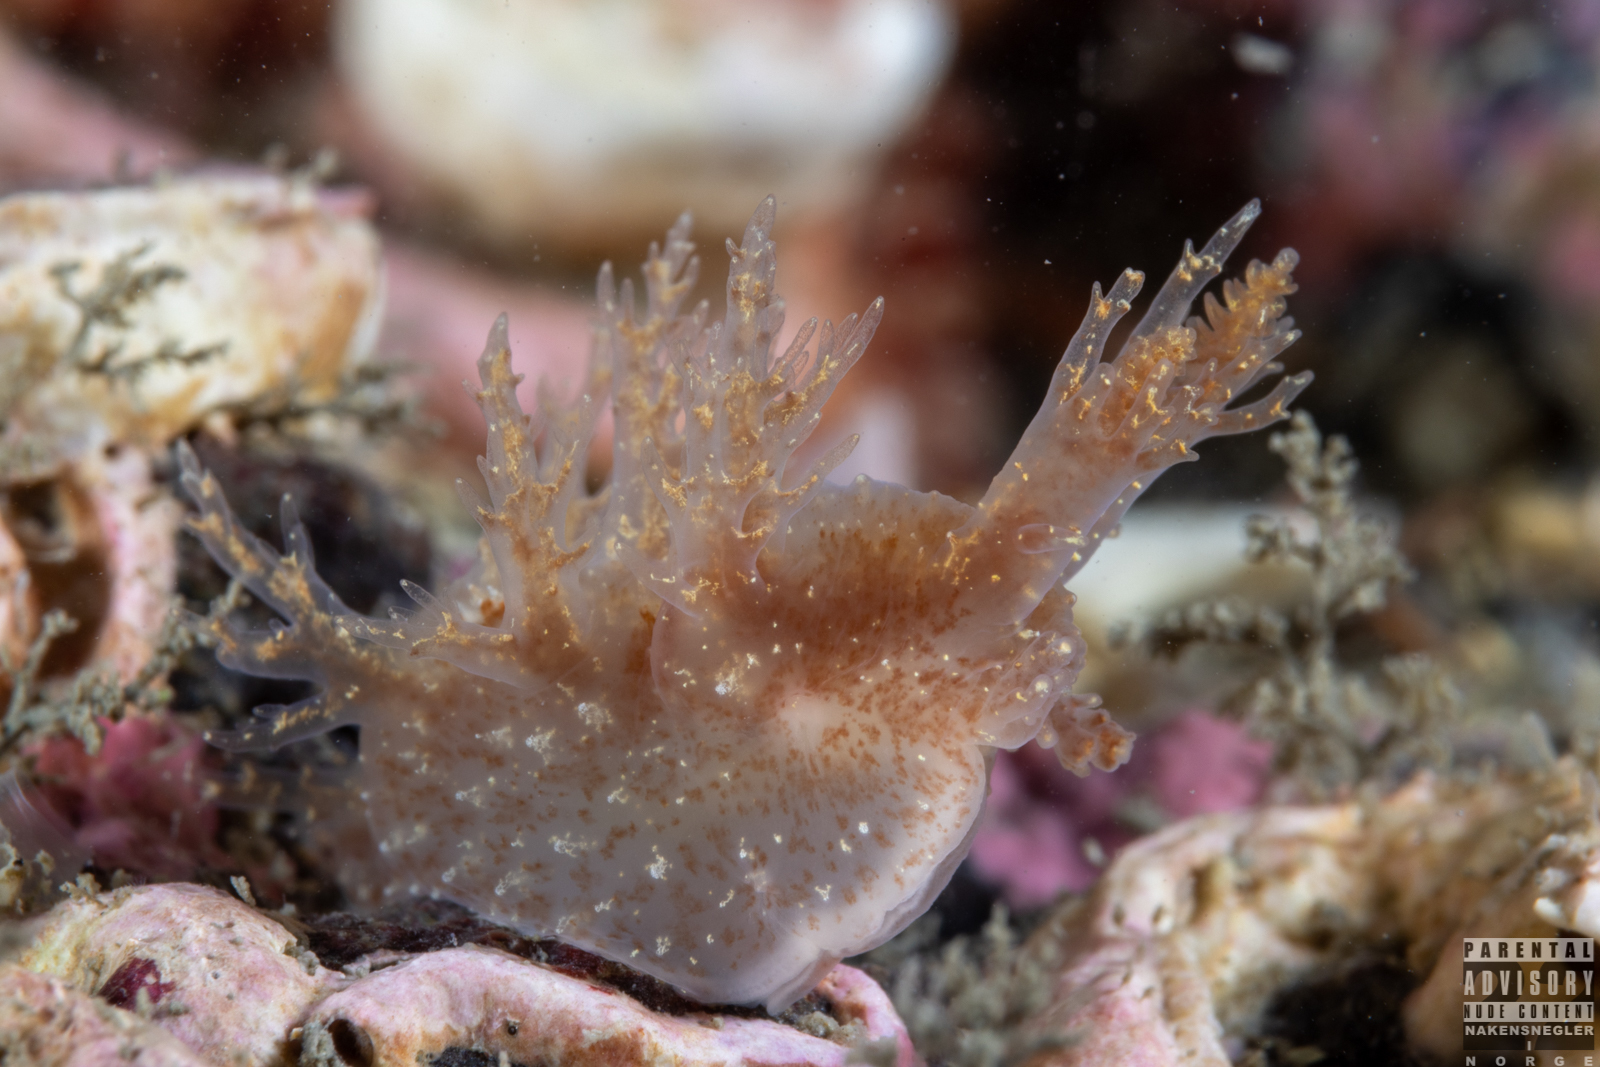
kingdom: Animalia
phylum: Mollusca
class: Gastropoda
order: Nudibranchia
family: Dendronotidae
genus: Dendronotus
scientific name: Dendronotus frondosus
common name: Bushy-backed nudibranch
